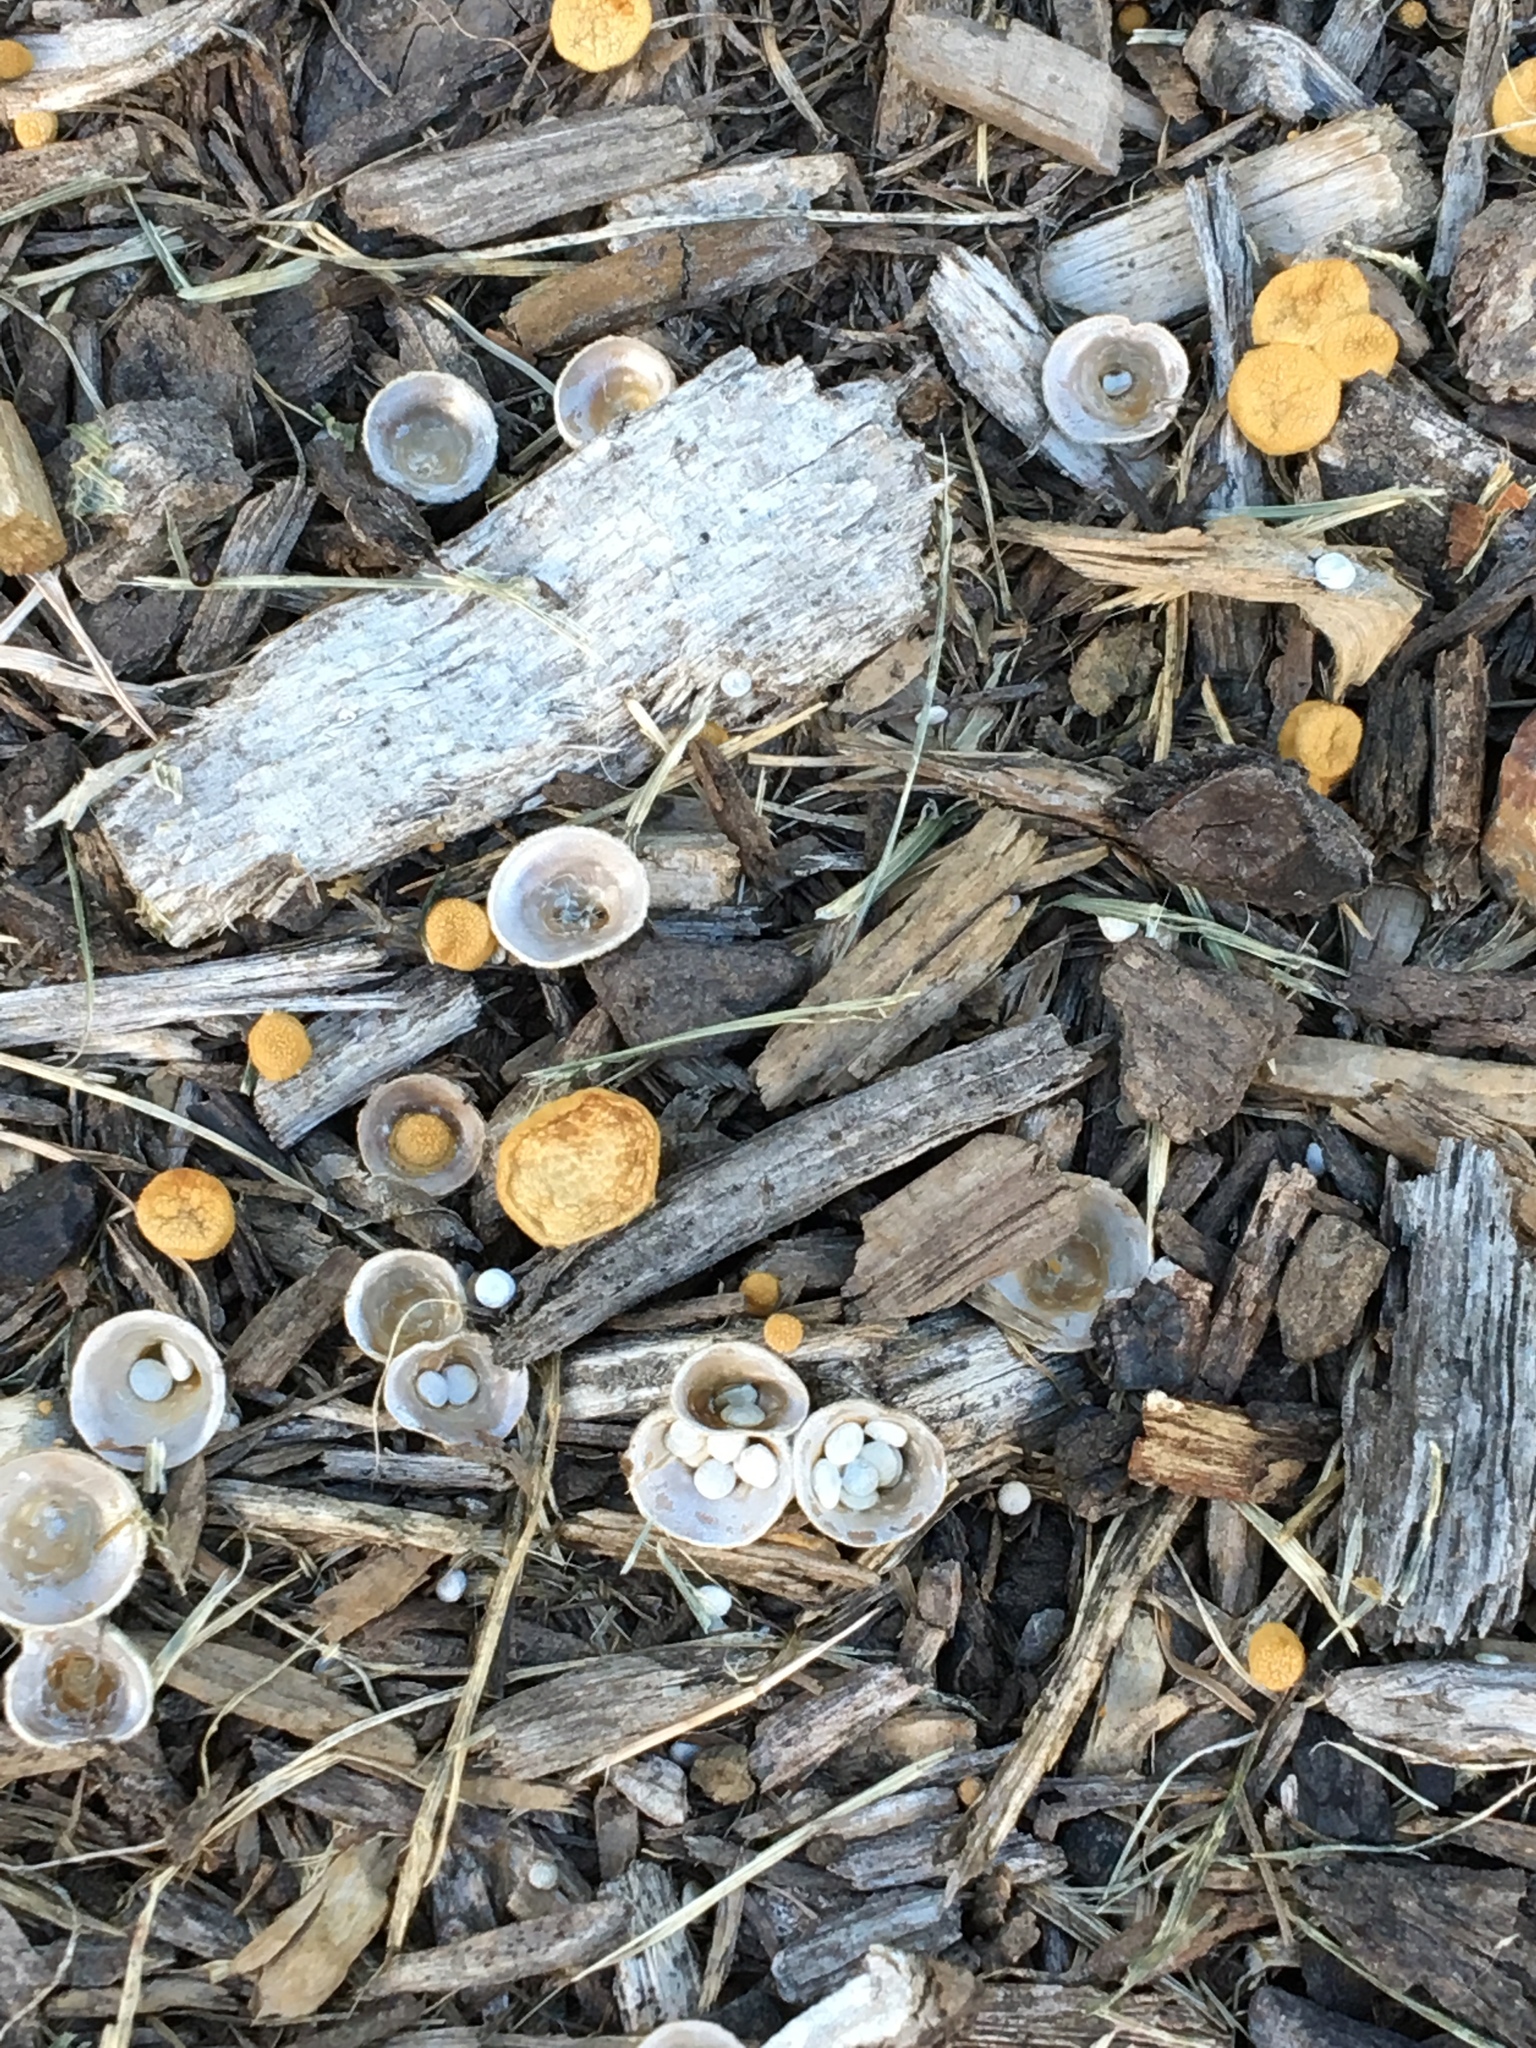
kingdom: Fungi
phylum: Basidiomycota
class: Agaricomycetes
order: Agaricales
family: Nidulariaceae
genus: Crucibulum
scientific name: Crucibulum laeve
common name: Common bird's nest
